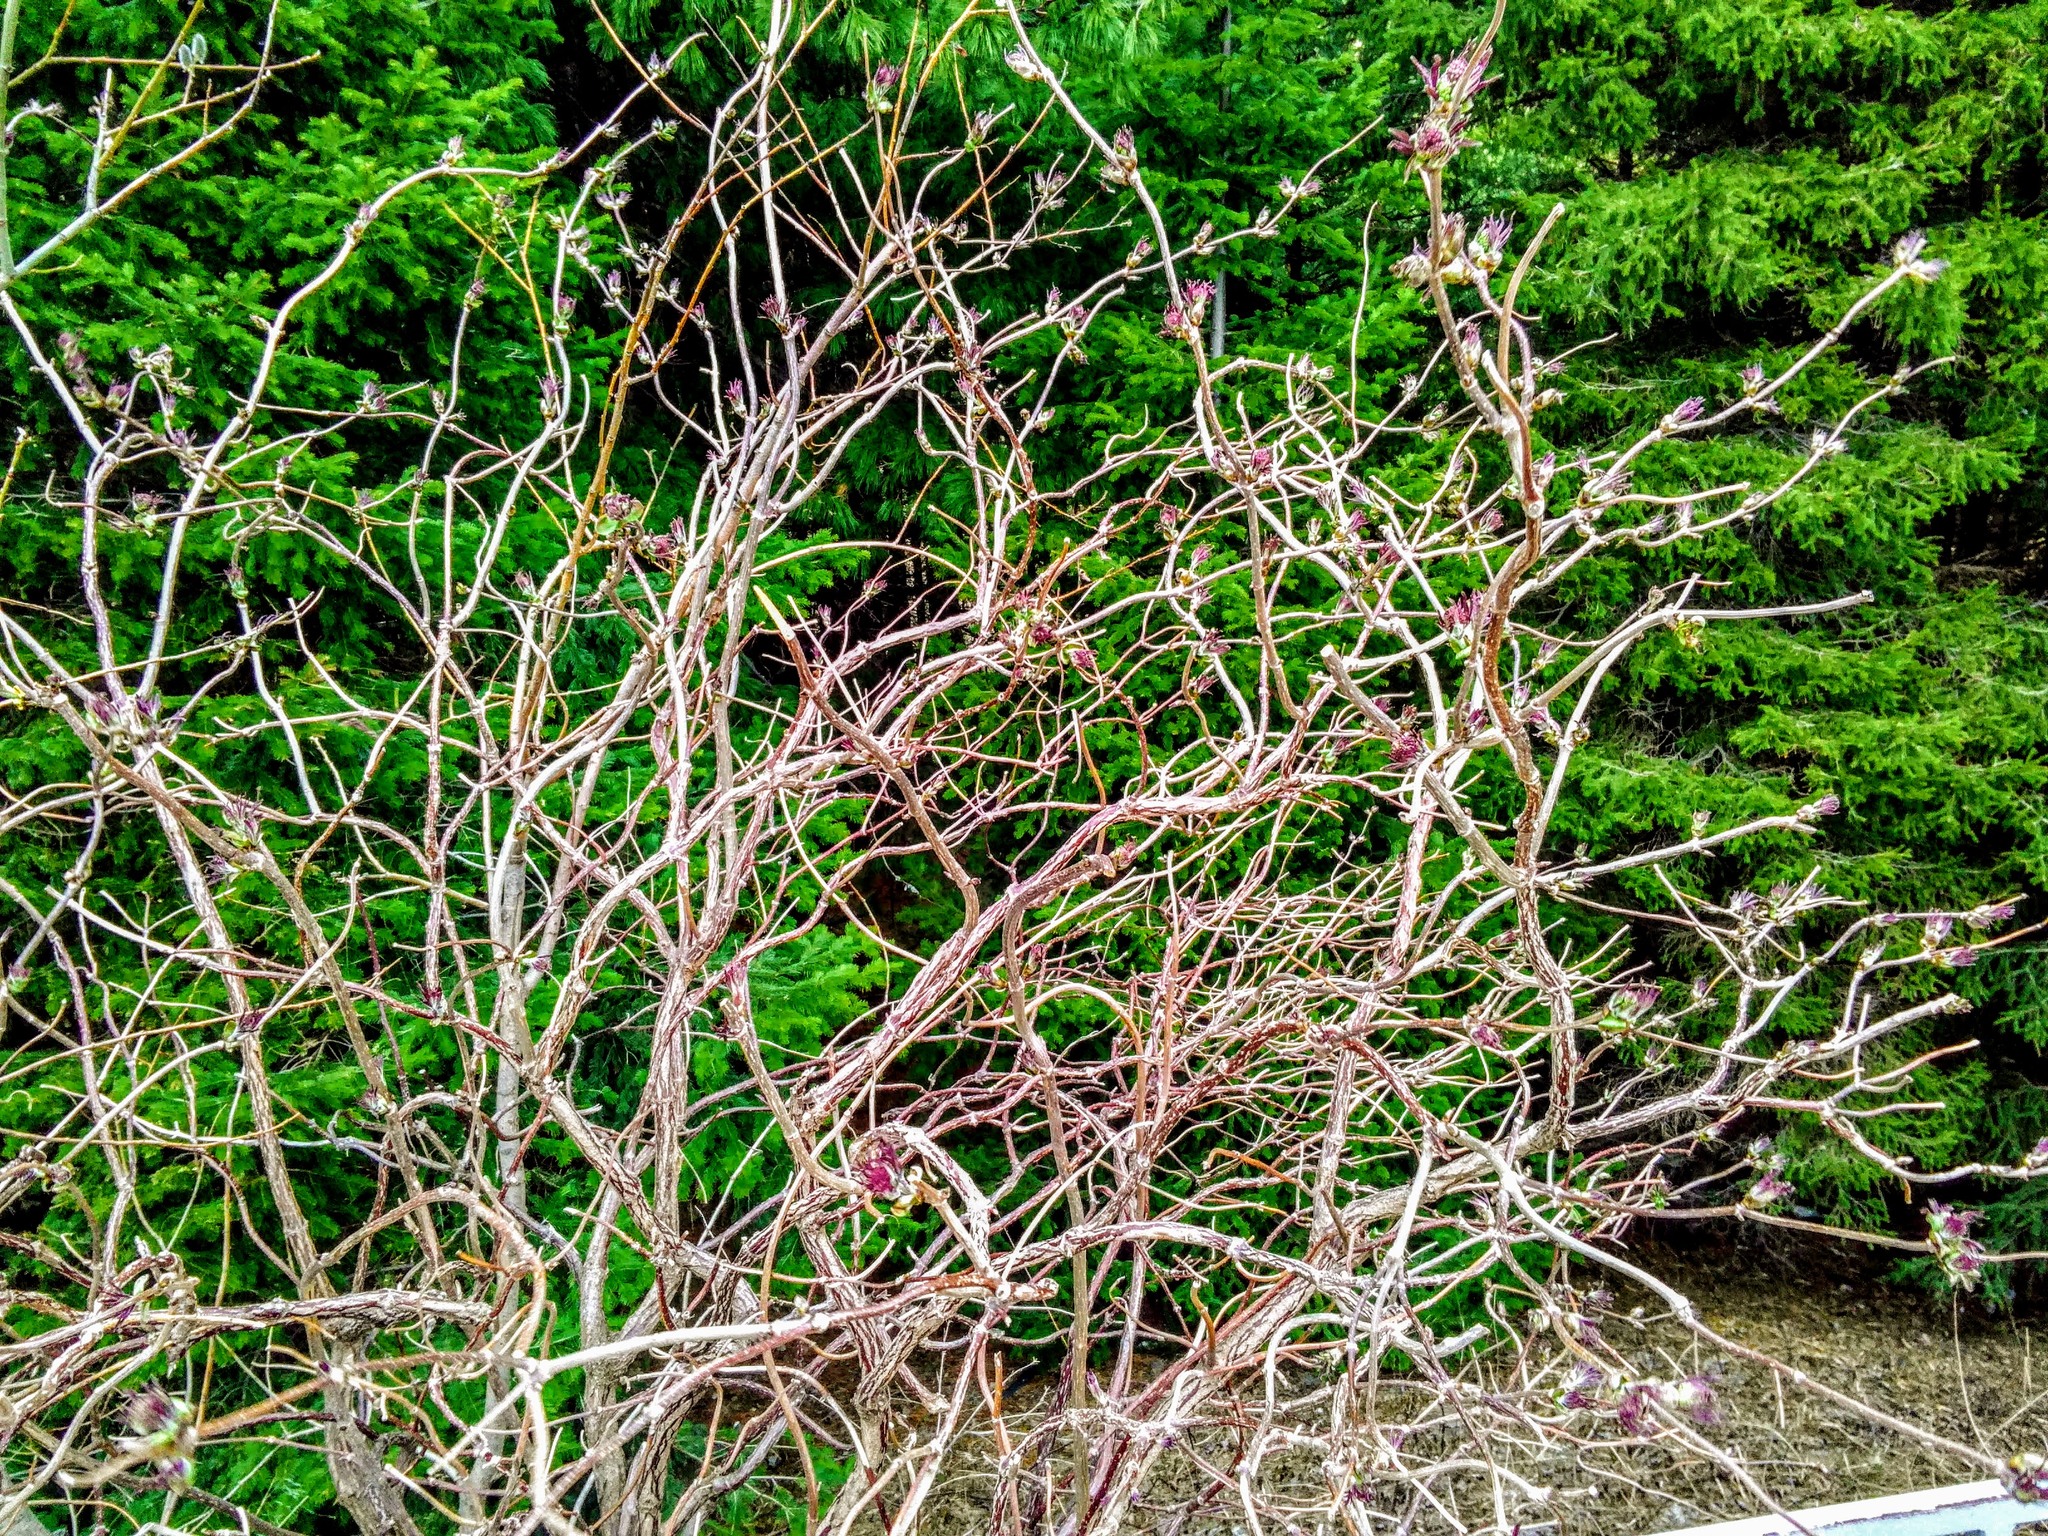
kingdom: Plantae
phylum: Tracheophyta
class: Magnoliopsida
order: Dipsacales
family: Viburnaceae
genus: Sambucus
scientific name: Sambucus sibirica
